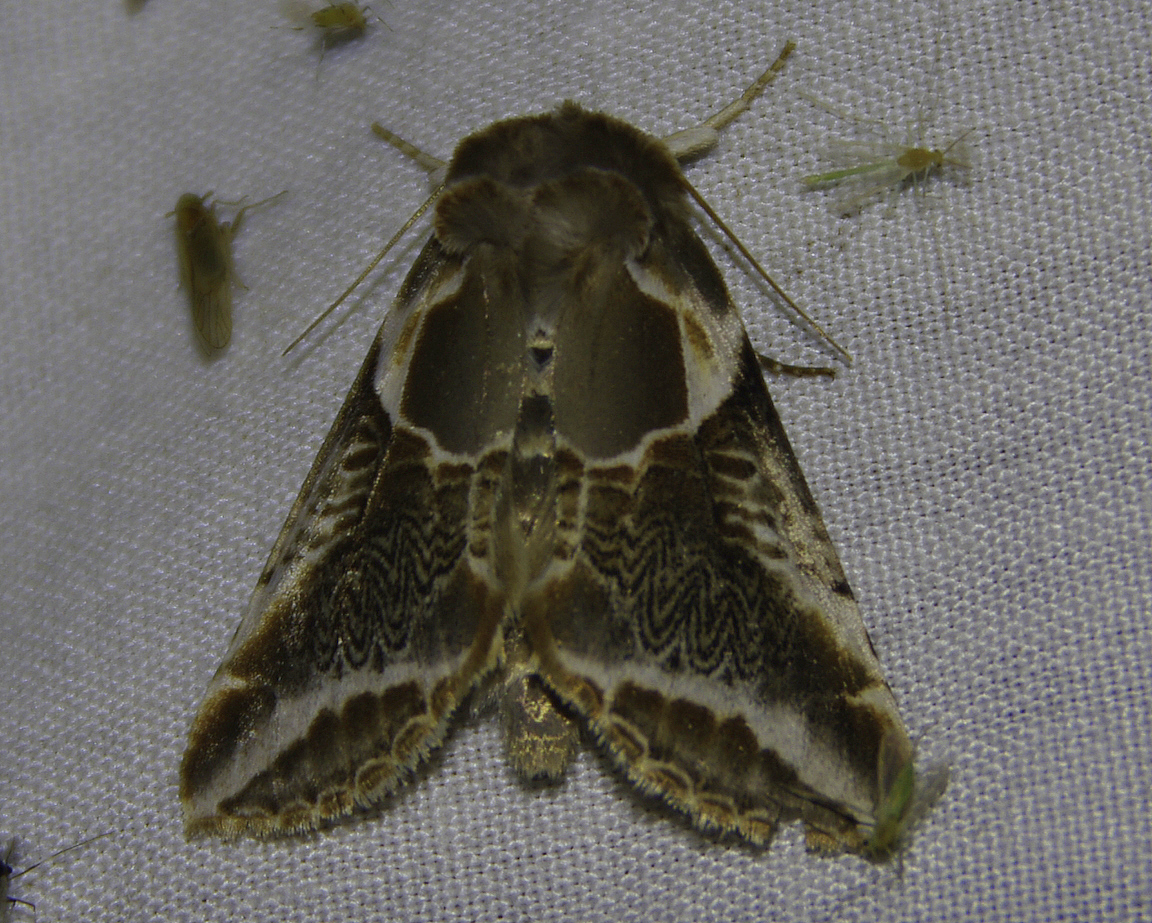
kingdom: Animalia
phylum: Arthropoda
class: Insecta
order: Lepidoptera
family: Drepanidae
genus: Habrosyne
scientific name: Habrosyne scripta
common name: Lettered habrosyne moth
